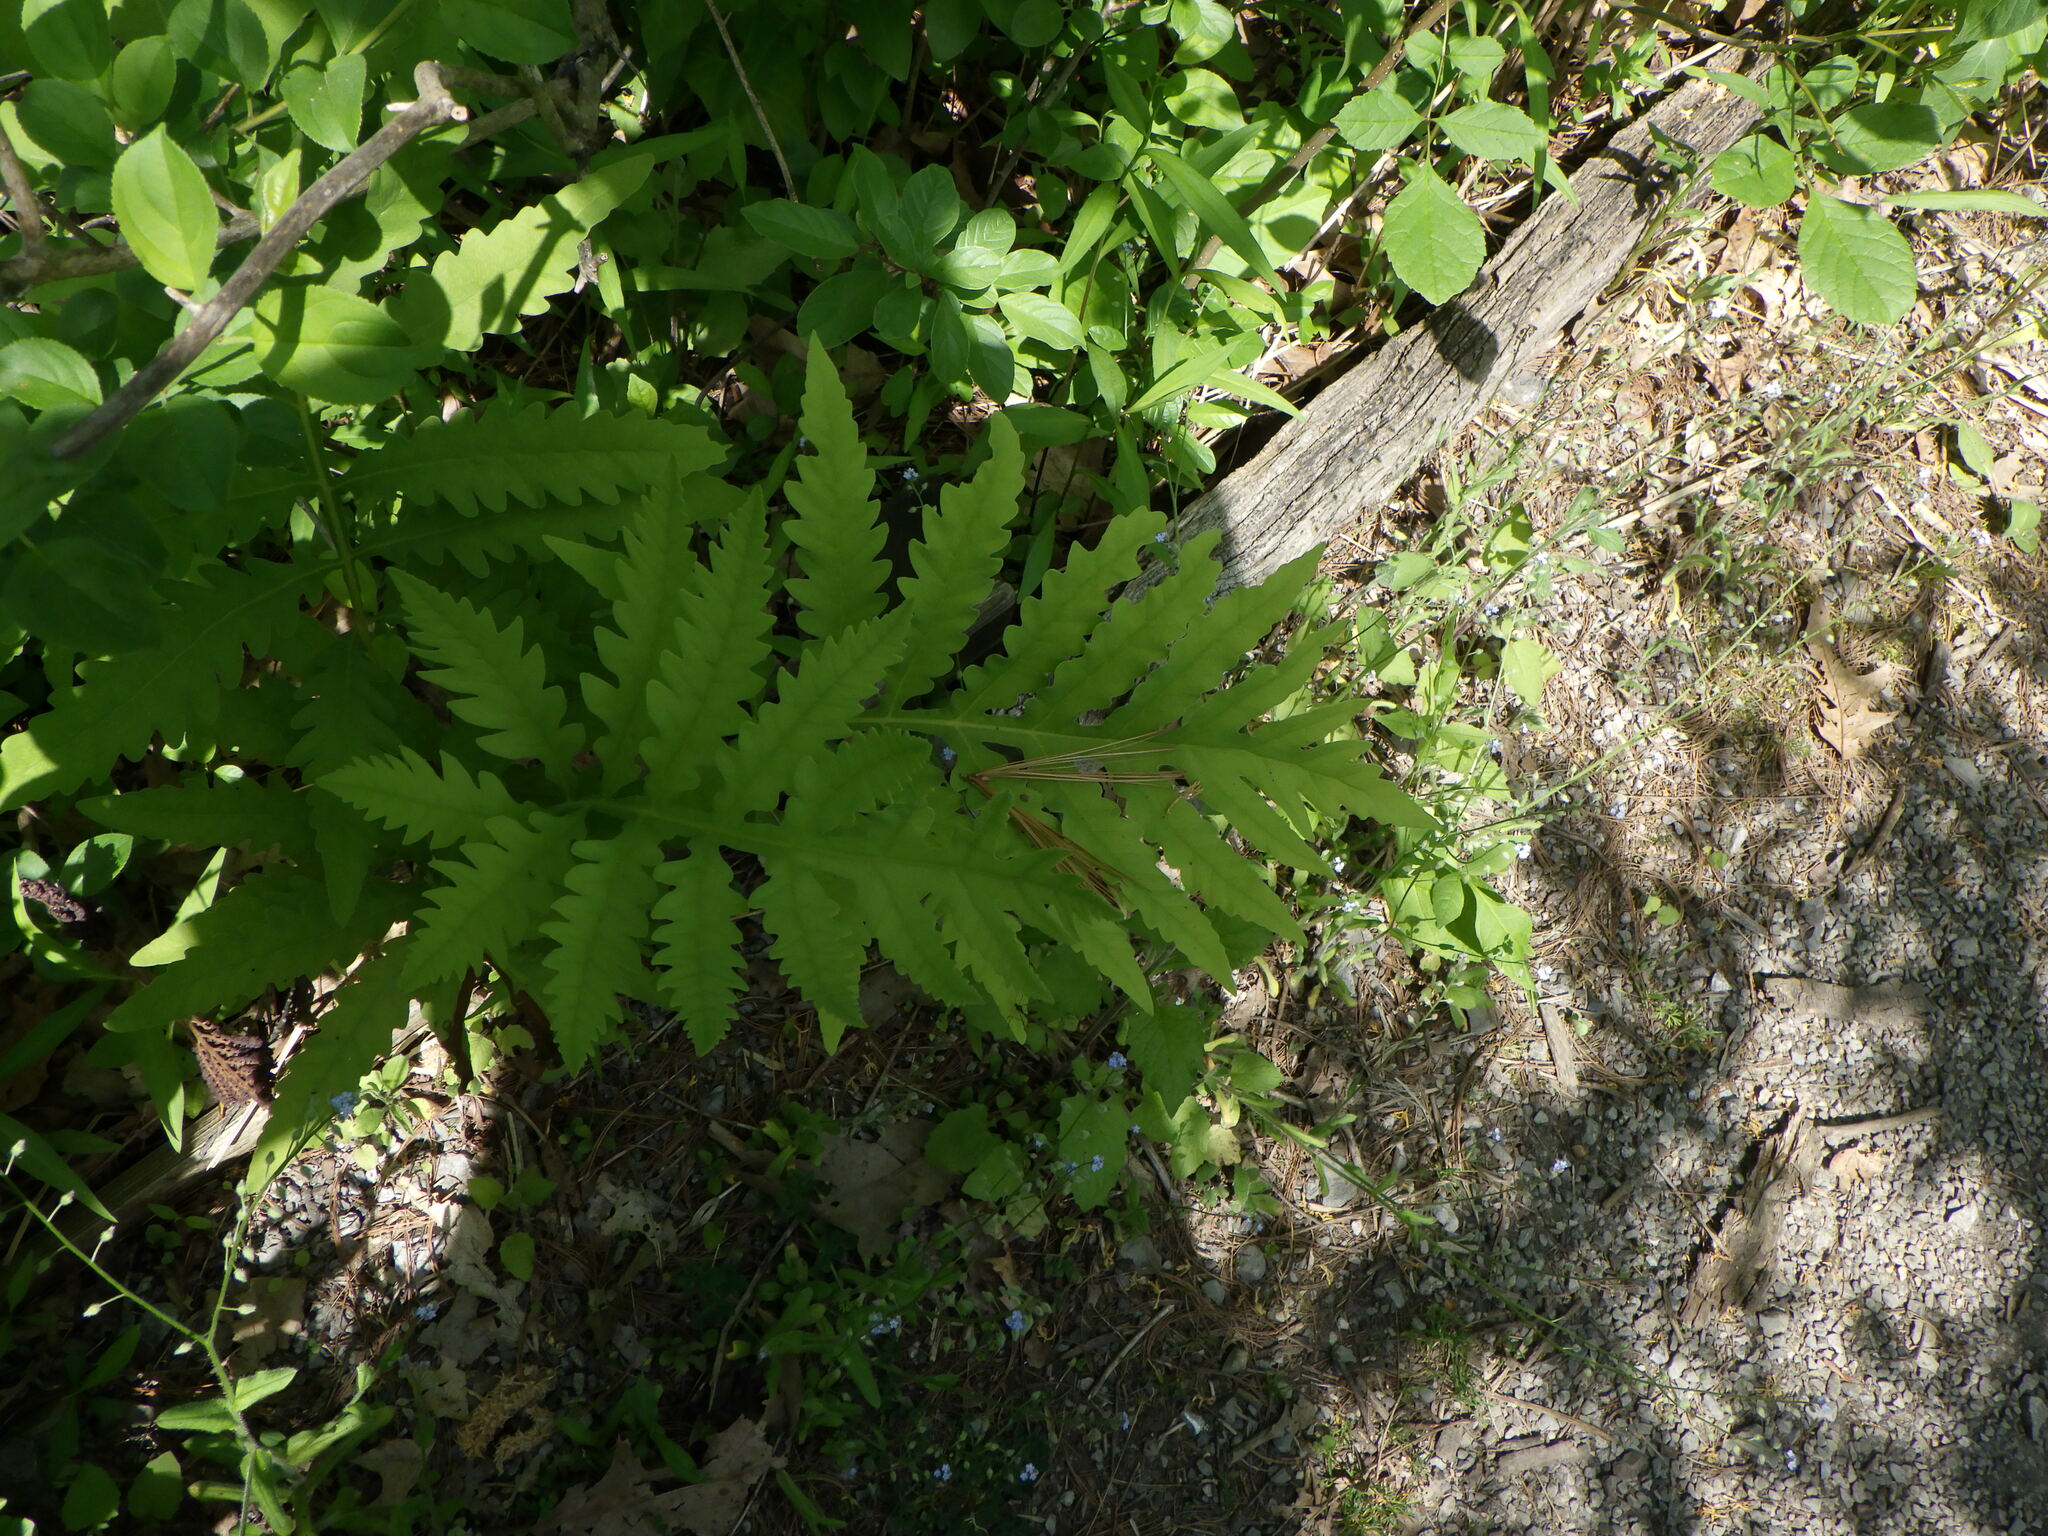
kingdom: Plantae
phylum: Tracheophyta
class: Polypodiopsida
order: Polypodiales
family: Onocleaceae
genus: Onoclea
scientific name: Onoclea sensibilis
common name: Sensitive fern
